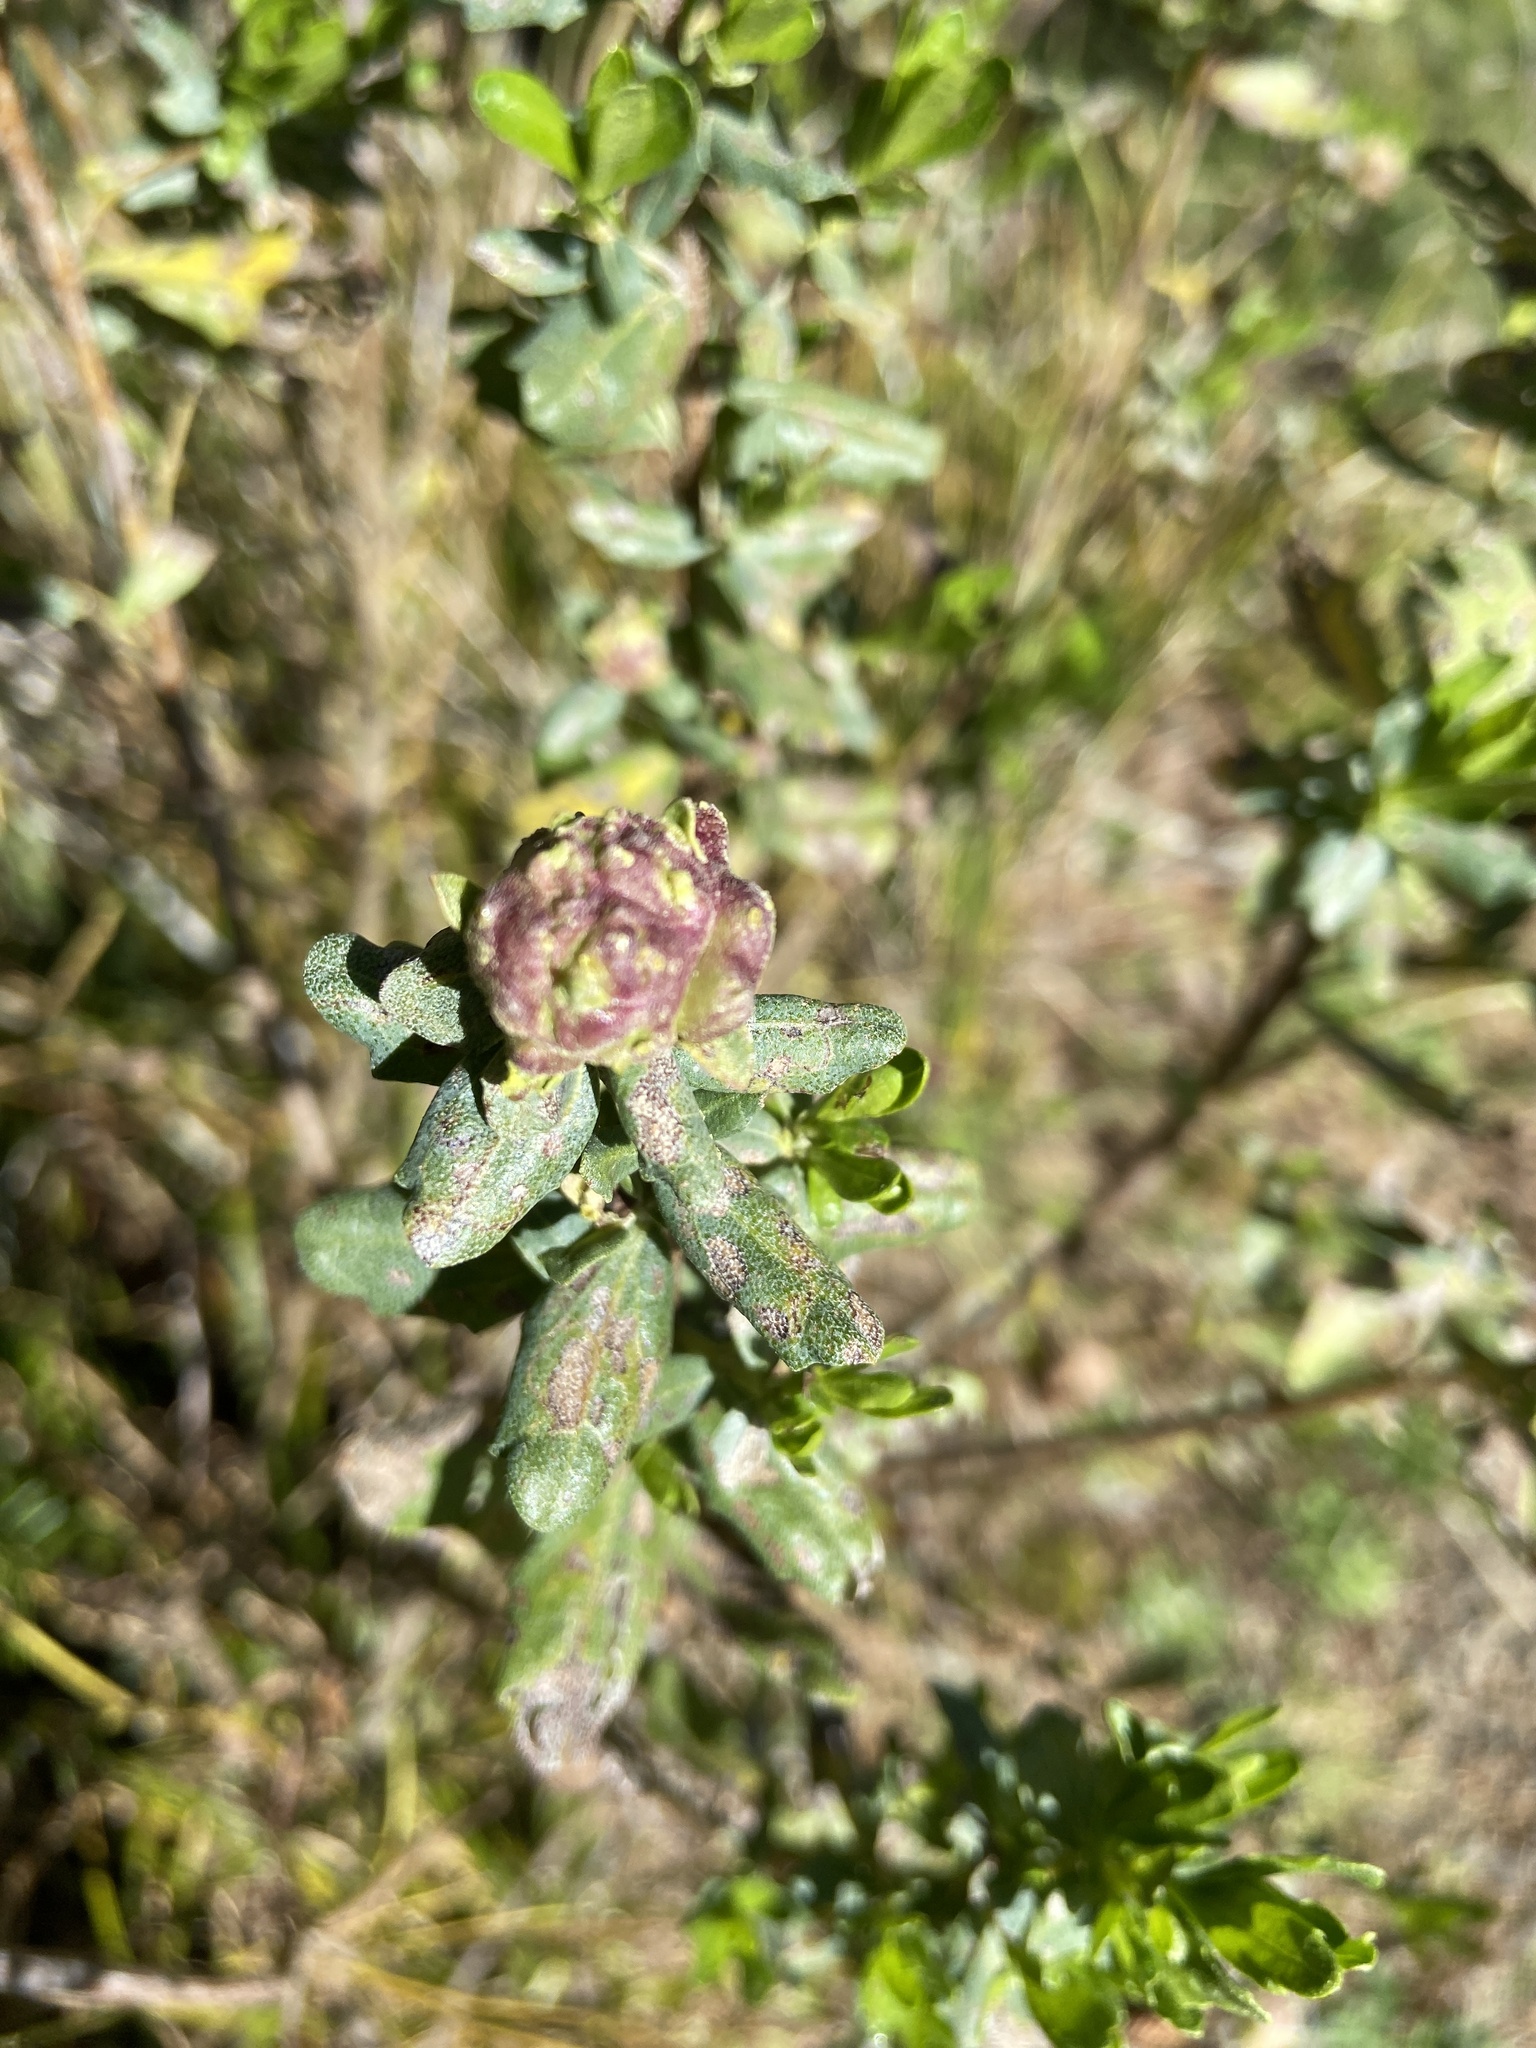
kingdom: Animalia
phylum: Arthropoda
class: Insecta
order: Diptera
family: Cecidomyiidae
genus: Rhopalomyia
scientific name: Rhopalomyia californica
